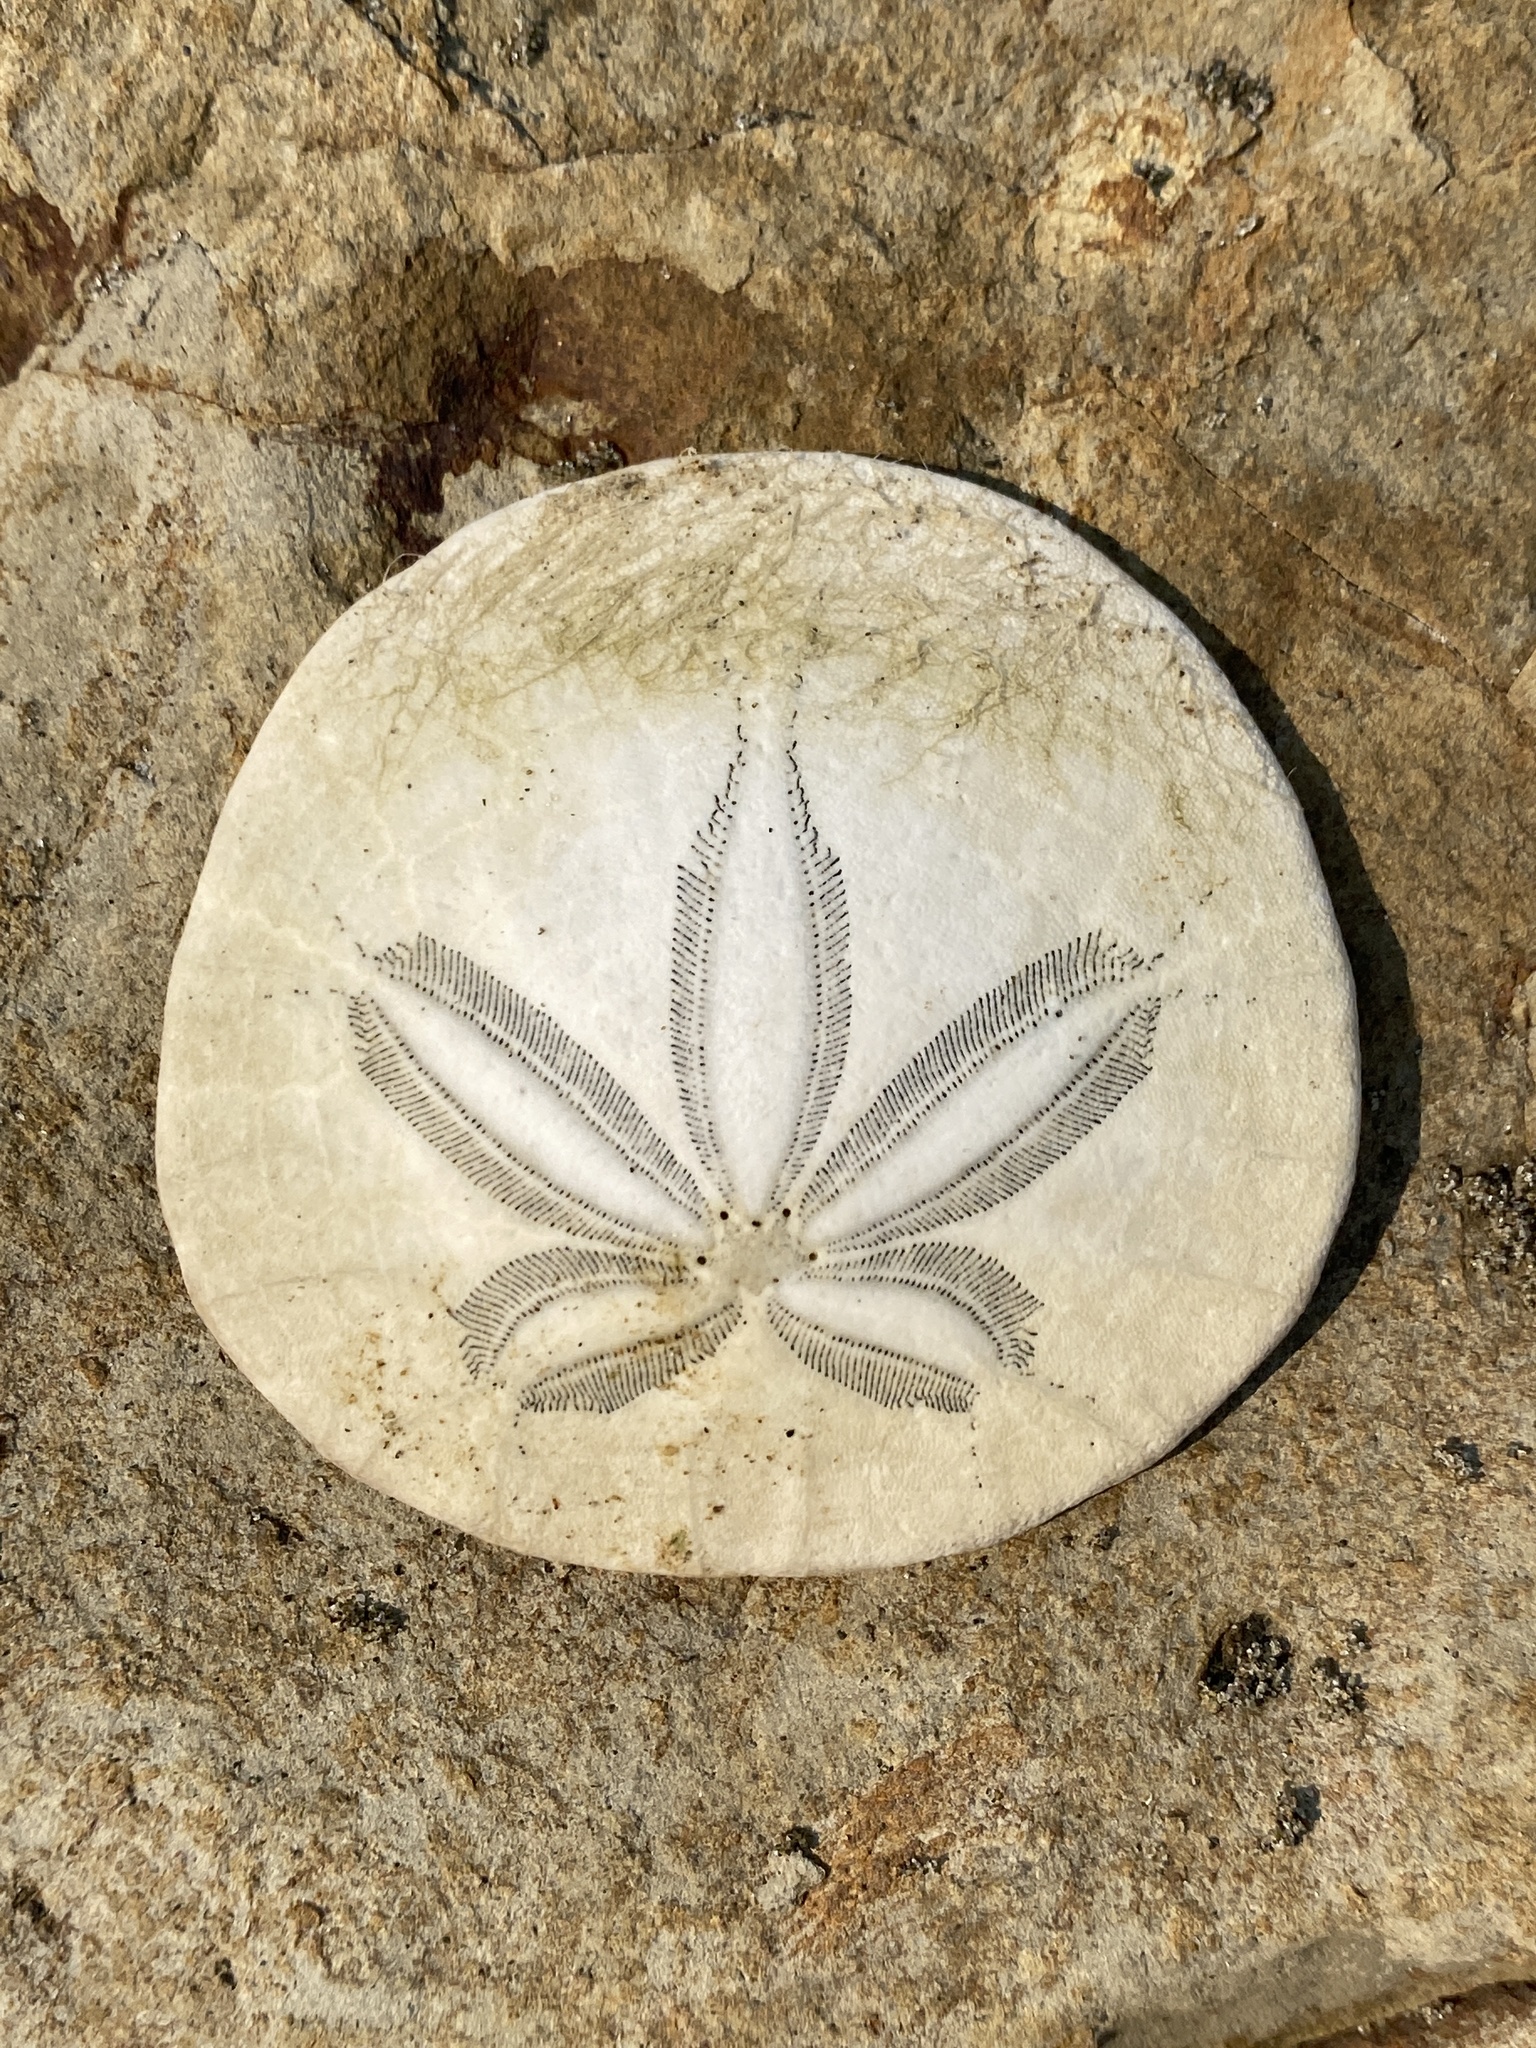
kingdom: Animalia
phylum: Echinodermata
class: Echinoidea
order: Echinolampadacea
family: Dendrasteridae
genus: Dendraster
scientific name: Dendraster excentricus
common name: Eccentric sand dollar sea urchin
